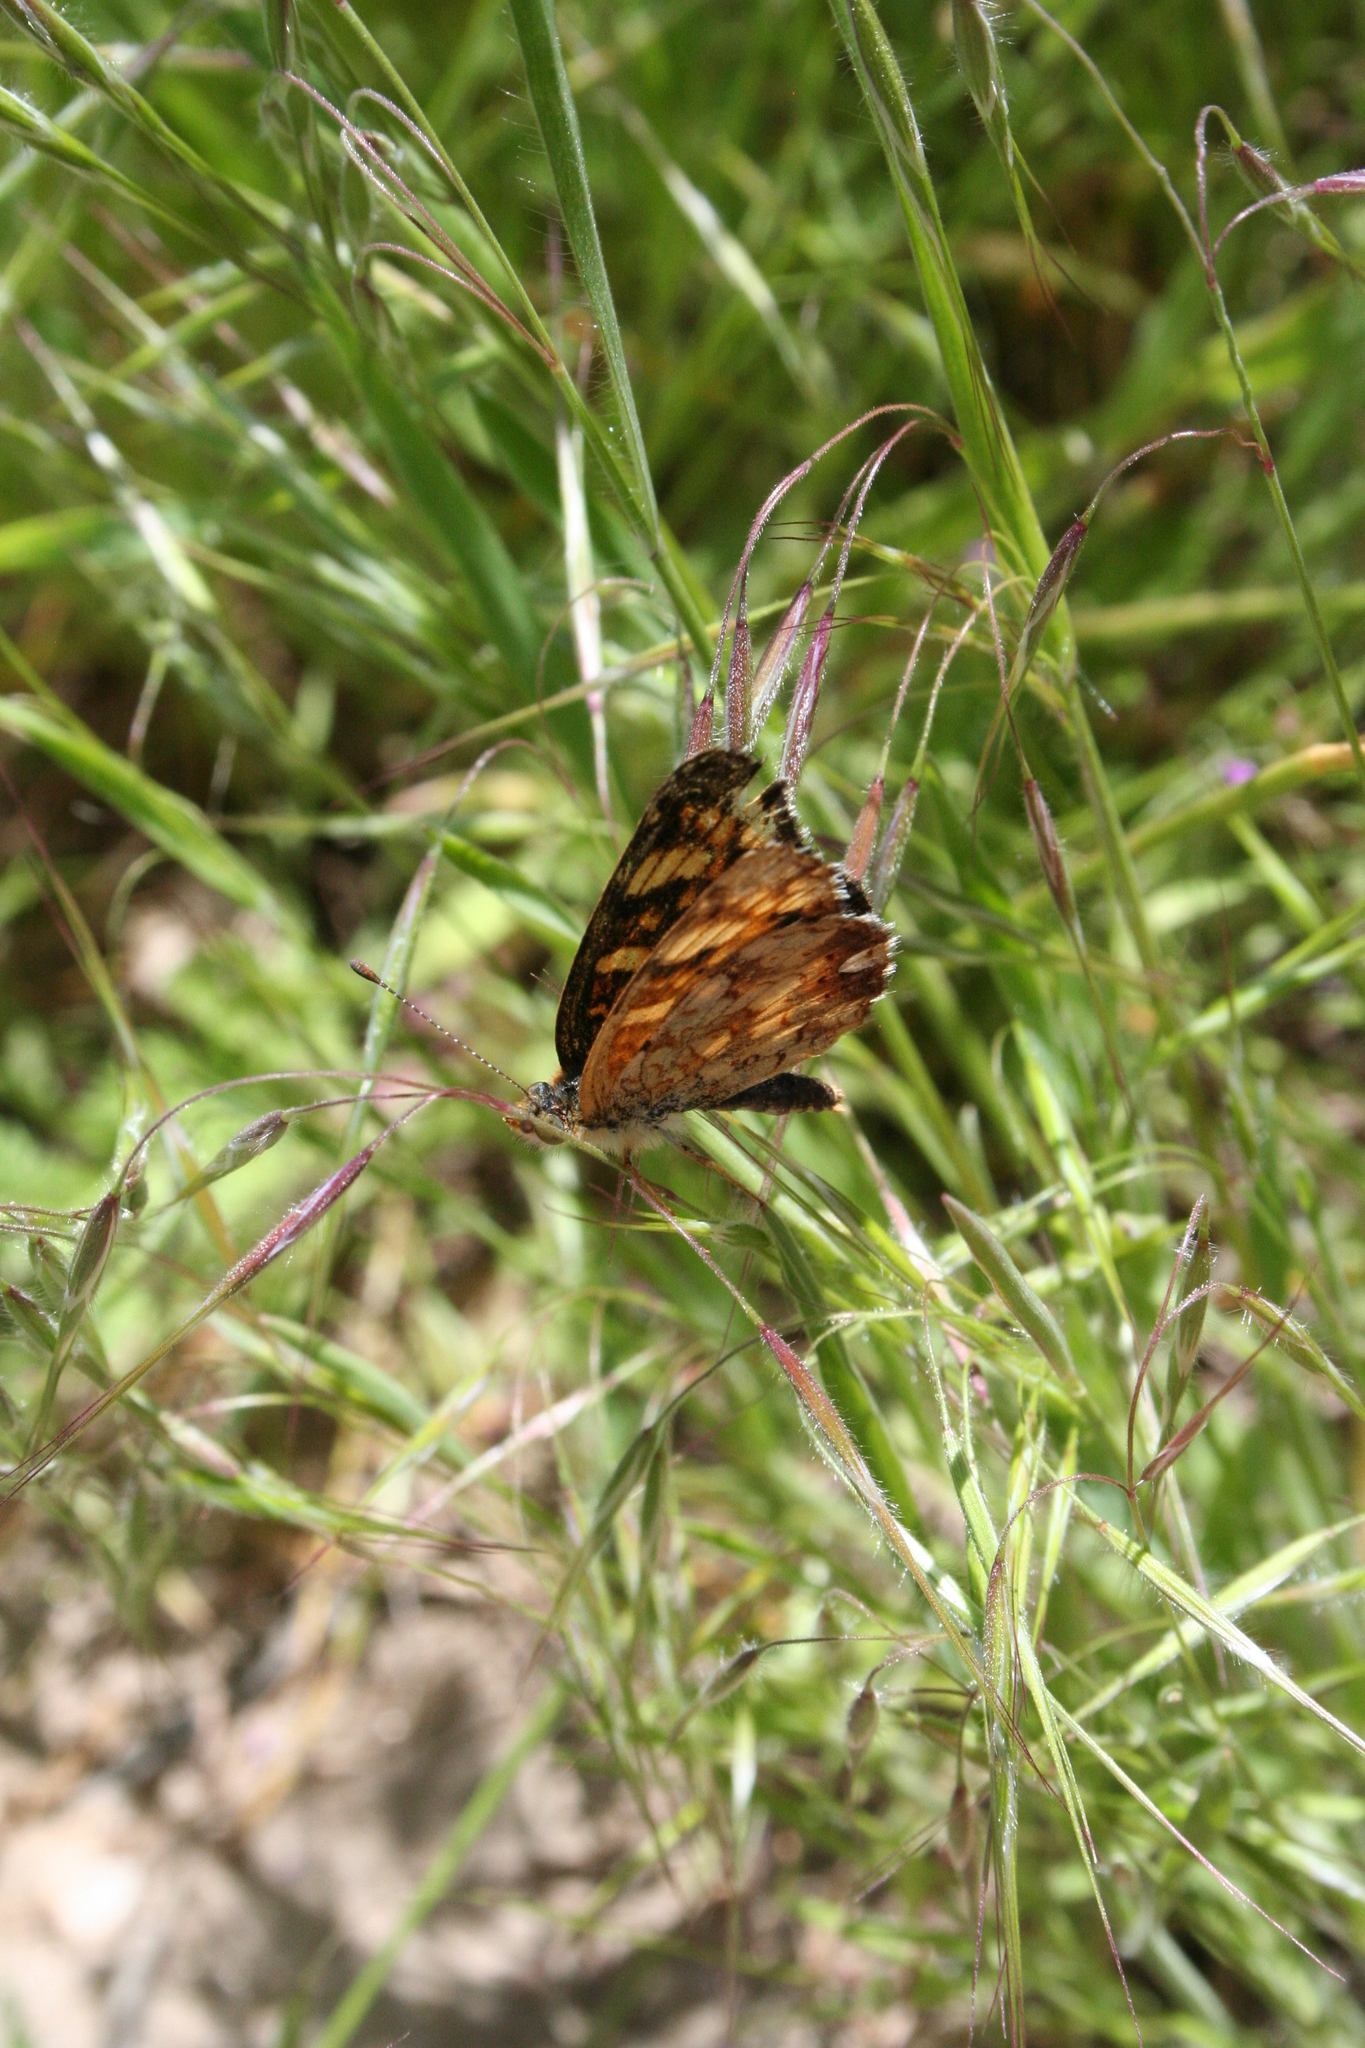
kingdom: Animalia
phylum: Arthropoda
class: Insecta
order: Lepidoptera
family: Nymphalidae
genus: Phyciodes
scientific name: Phyciodes tharos
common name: Pearl crescent
